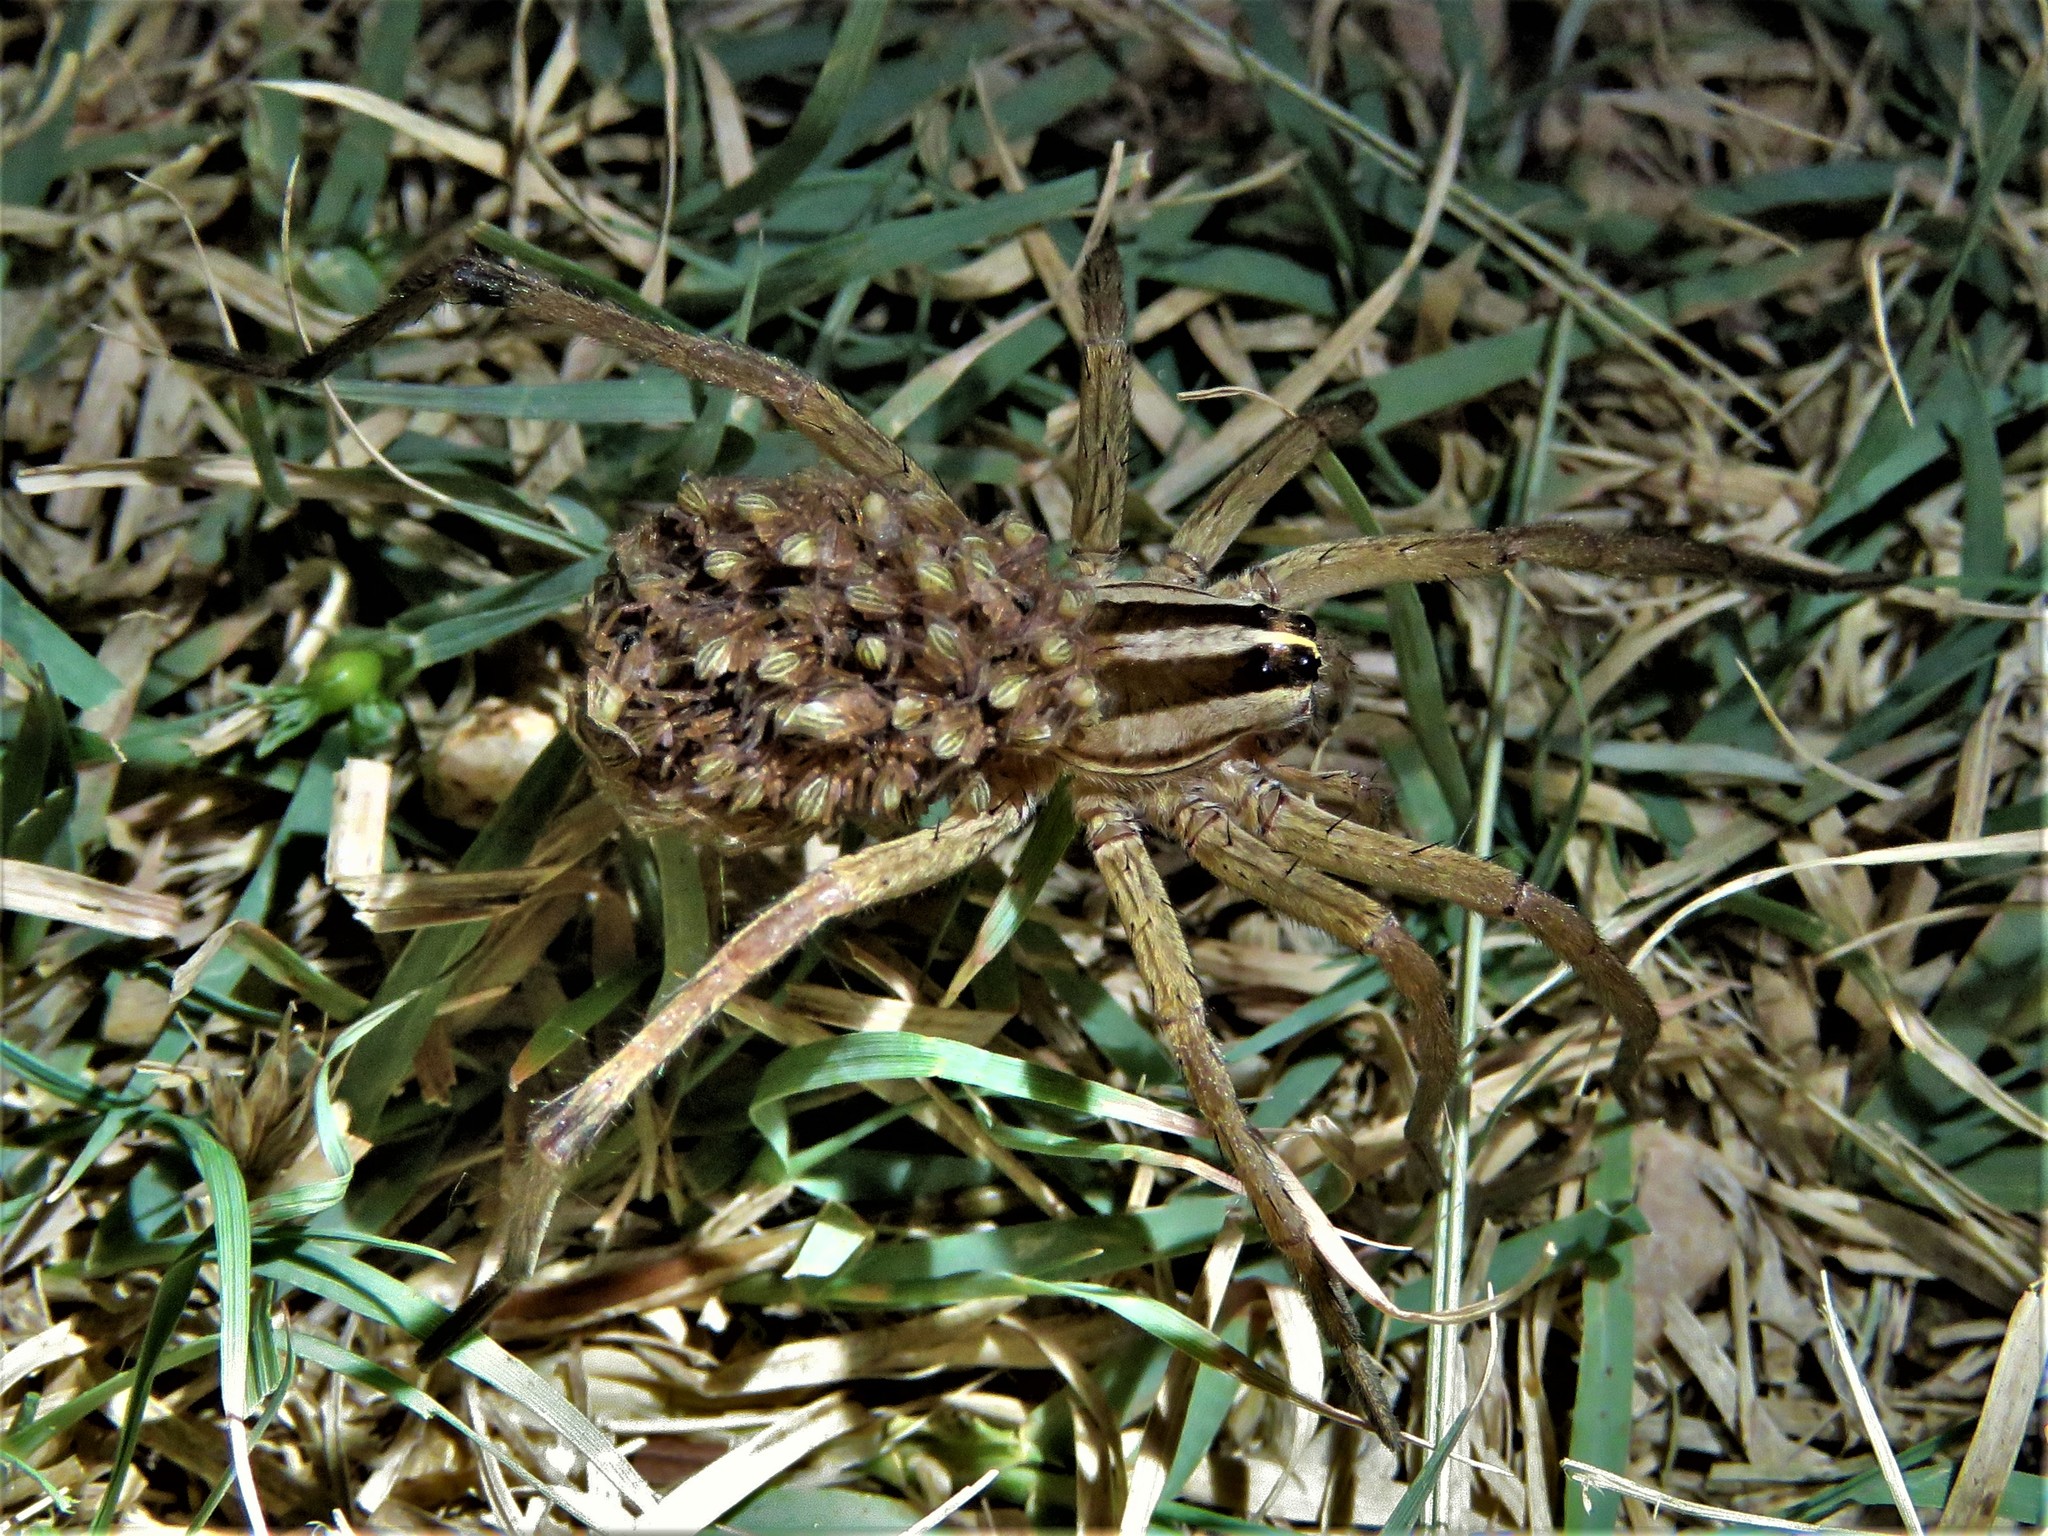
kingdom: Animalia
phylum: Arthropoda
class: Arachnida
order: Araneae
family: Lycosidae
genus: Rabidosa
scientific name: Rabidosa
